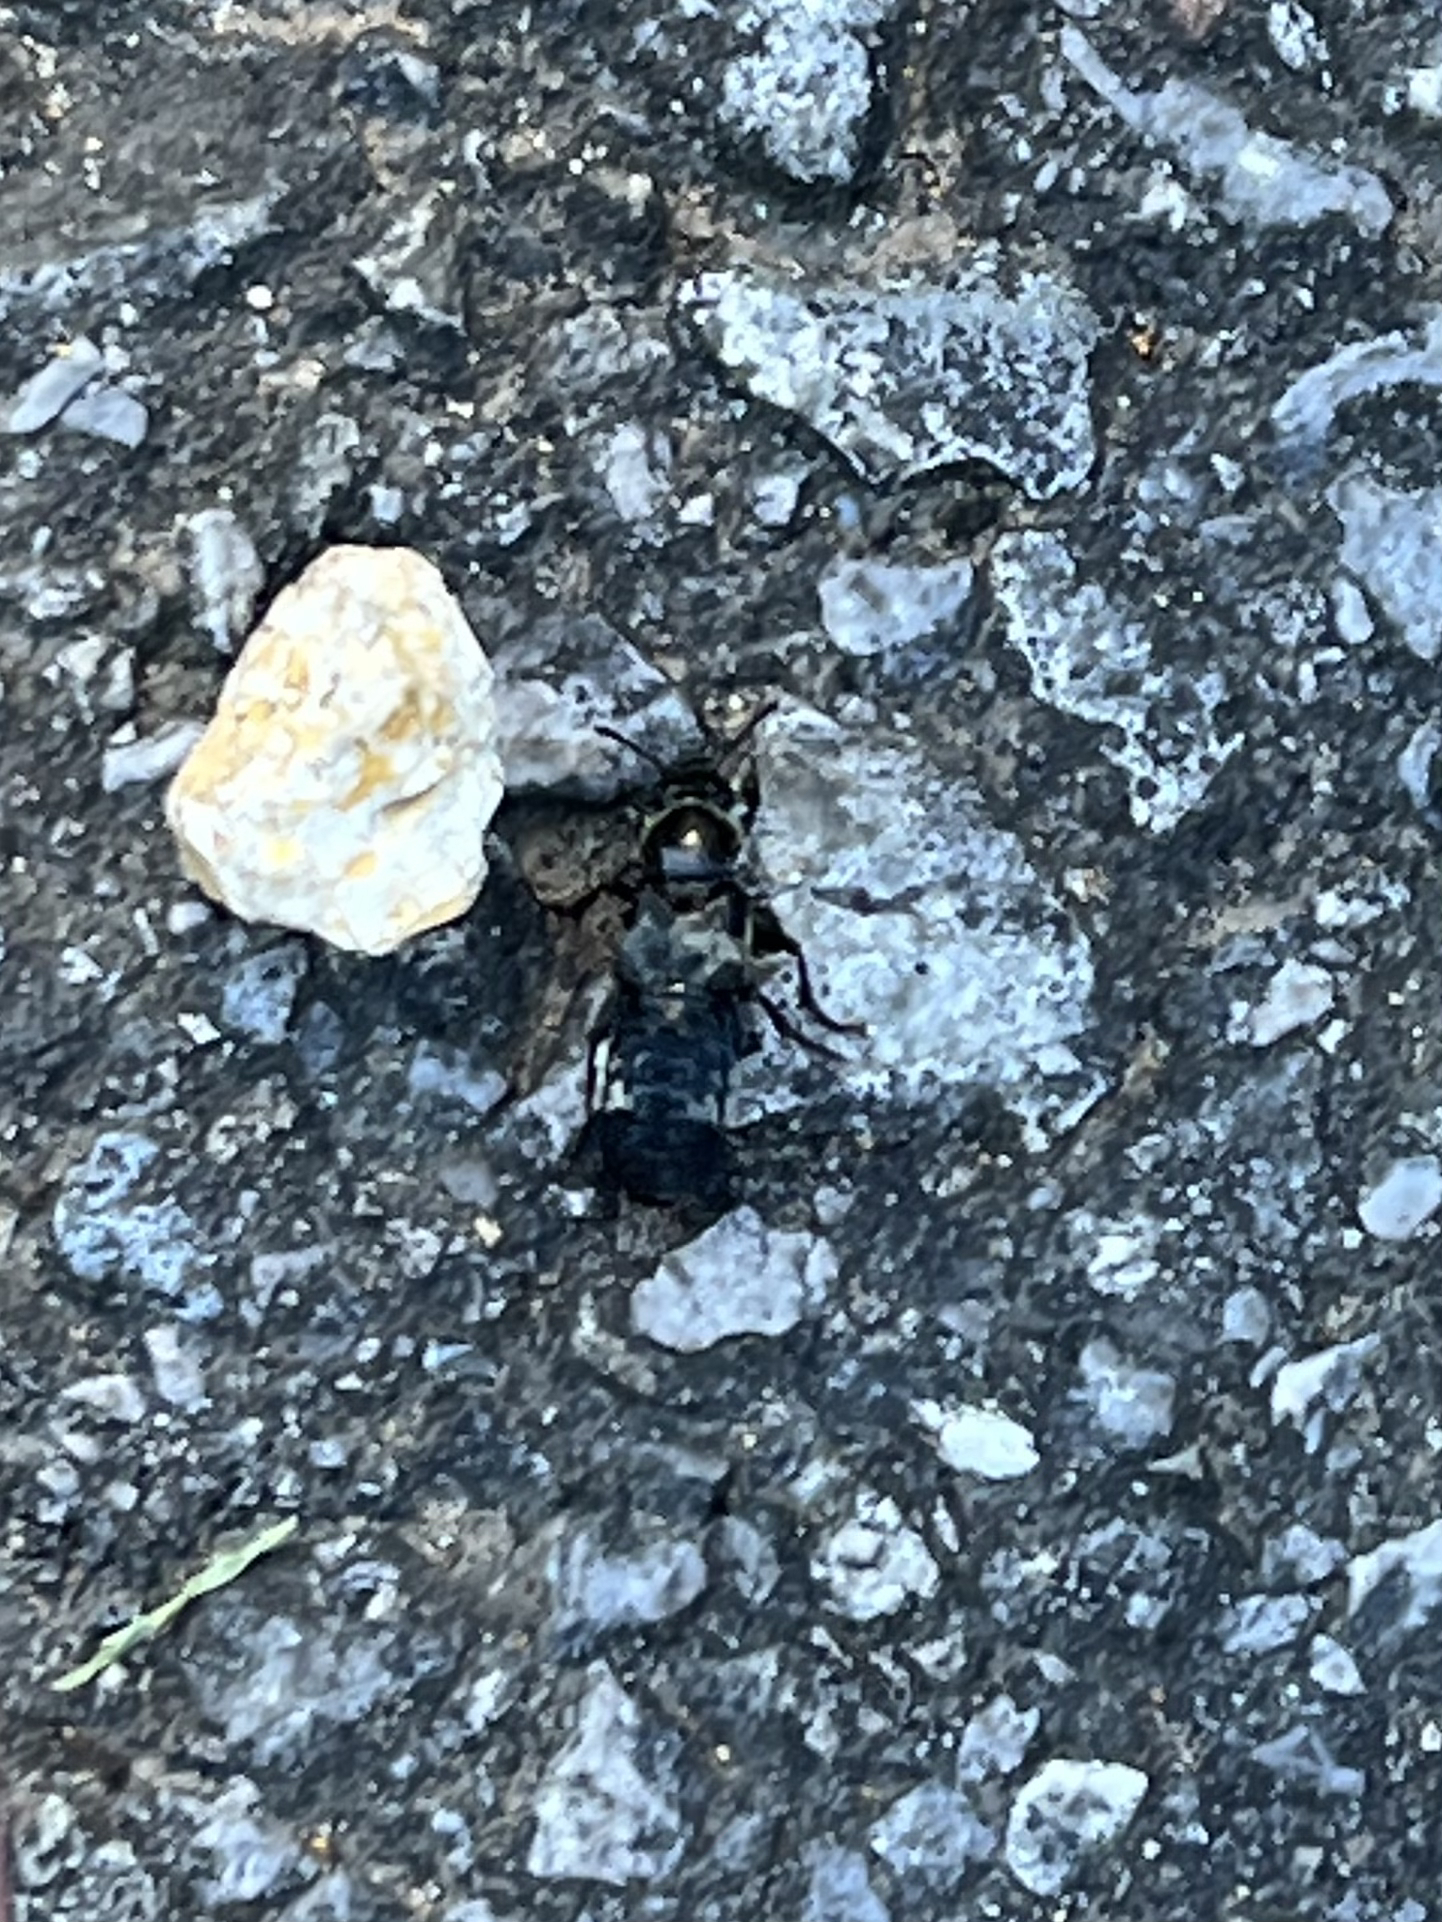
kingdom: Animalia
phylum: Arthropoda
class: Insecta
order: Coleoptera
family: Staphylinidae
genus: Creophilus
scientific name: Creophilus maxillosus
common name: Hairy rove beetle
